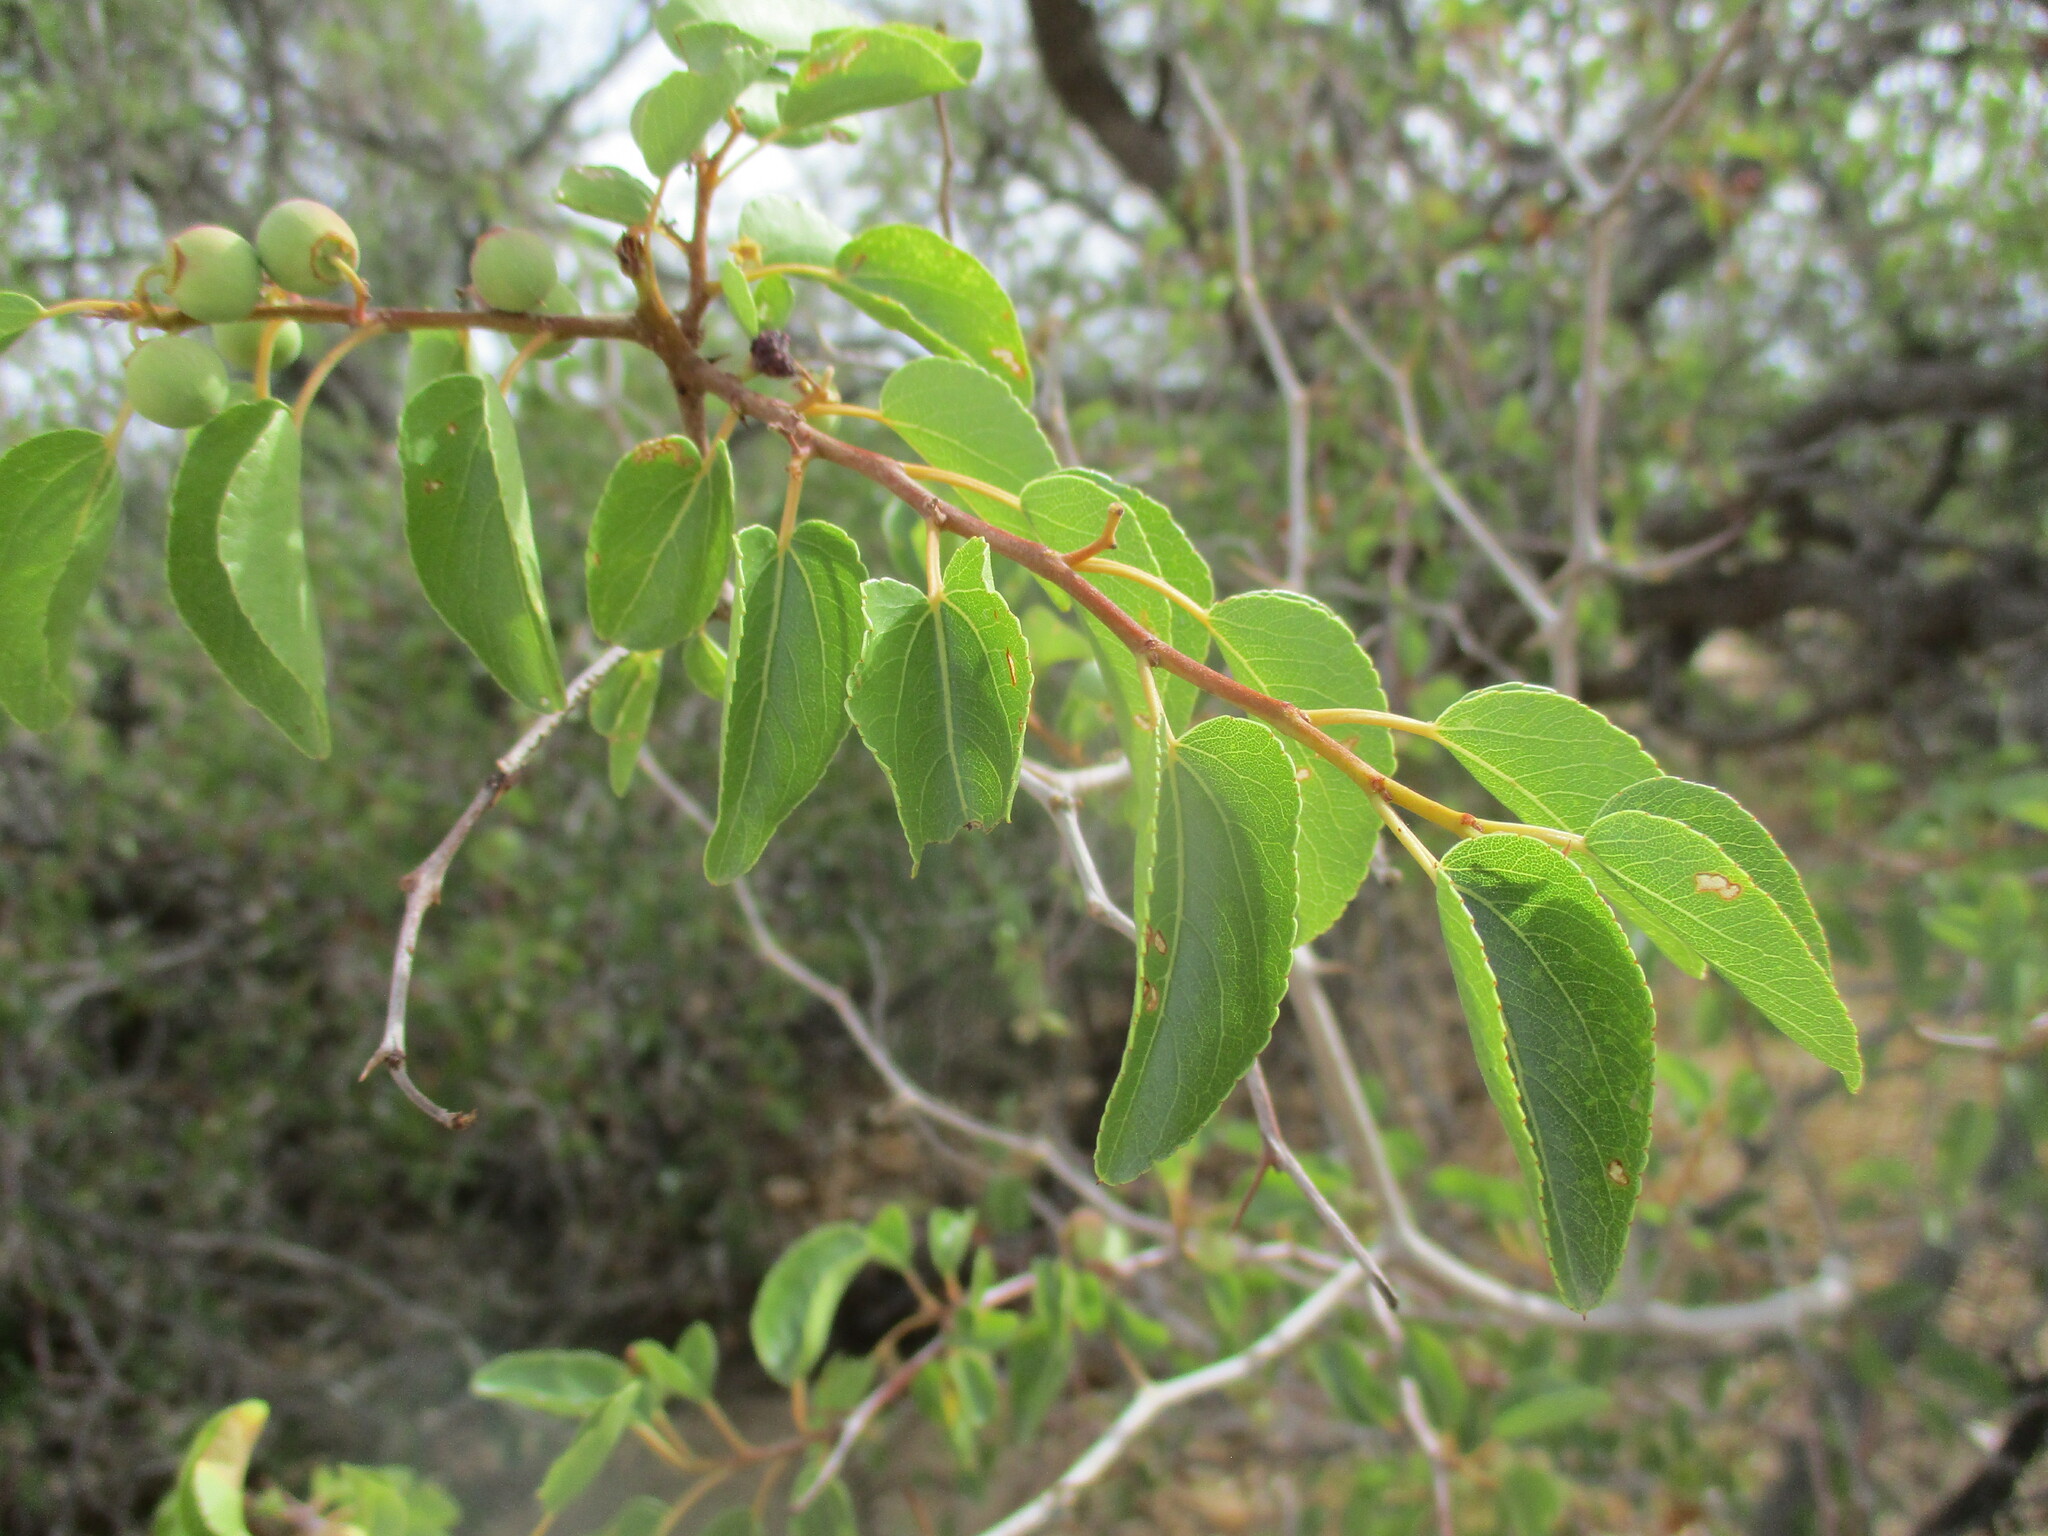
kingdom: Plantae
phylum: Tracheophyta
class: Magnoliopsida
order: Rosales
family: Rhamnaceae
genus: Ziziphus
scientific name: Ziziphus mucronata
